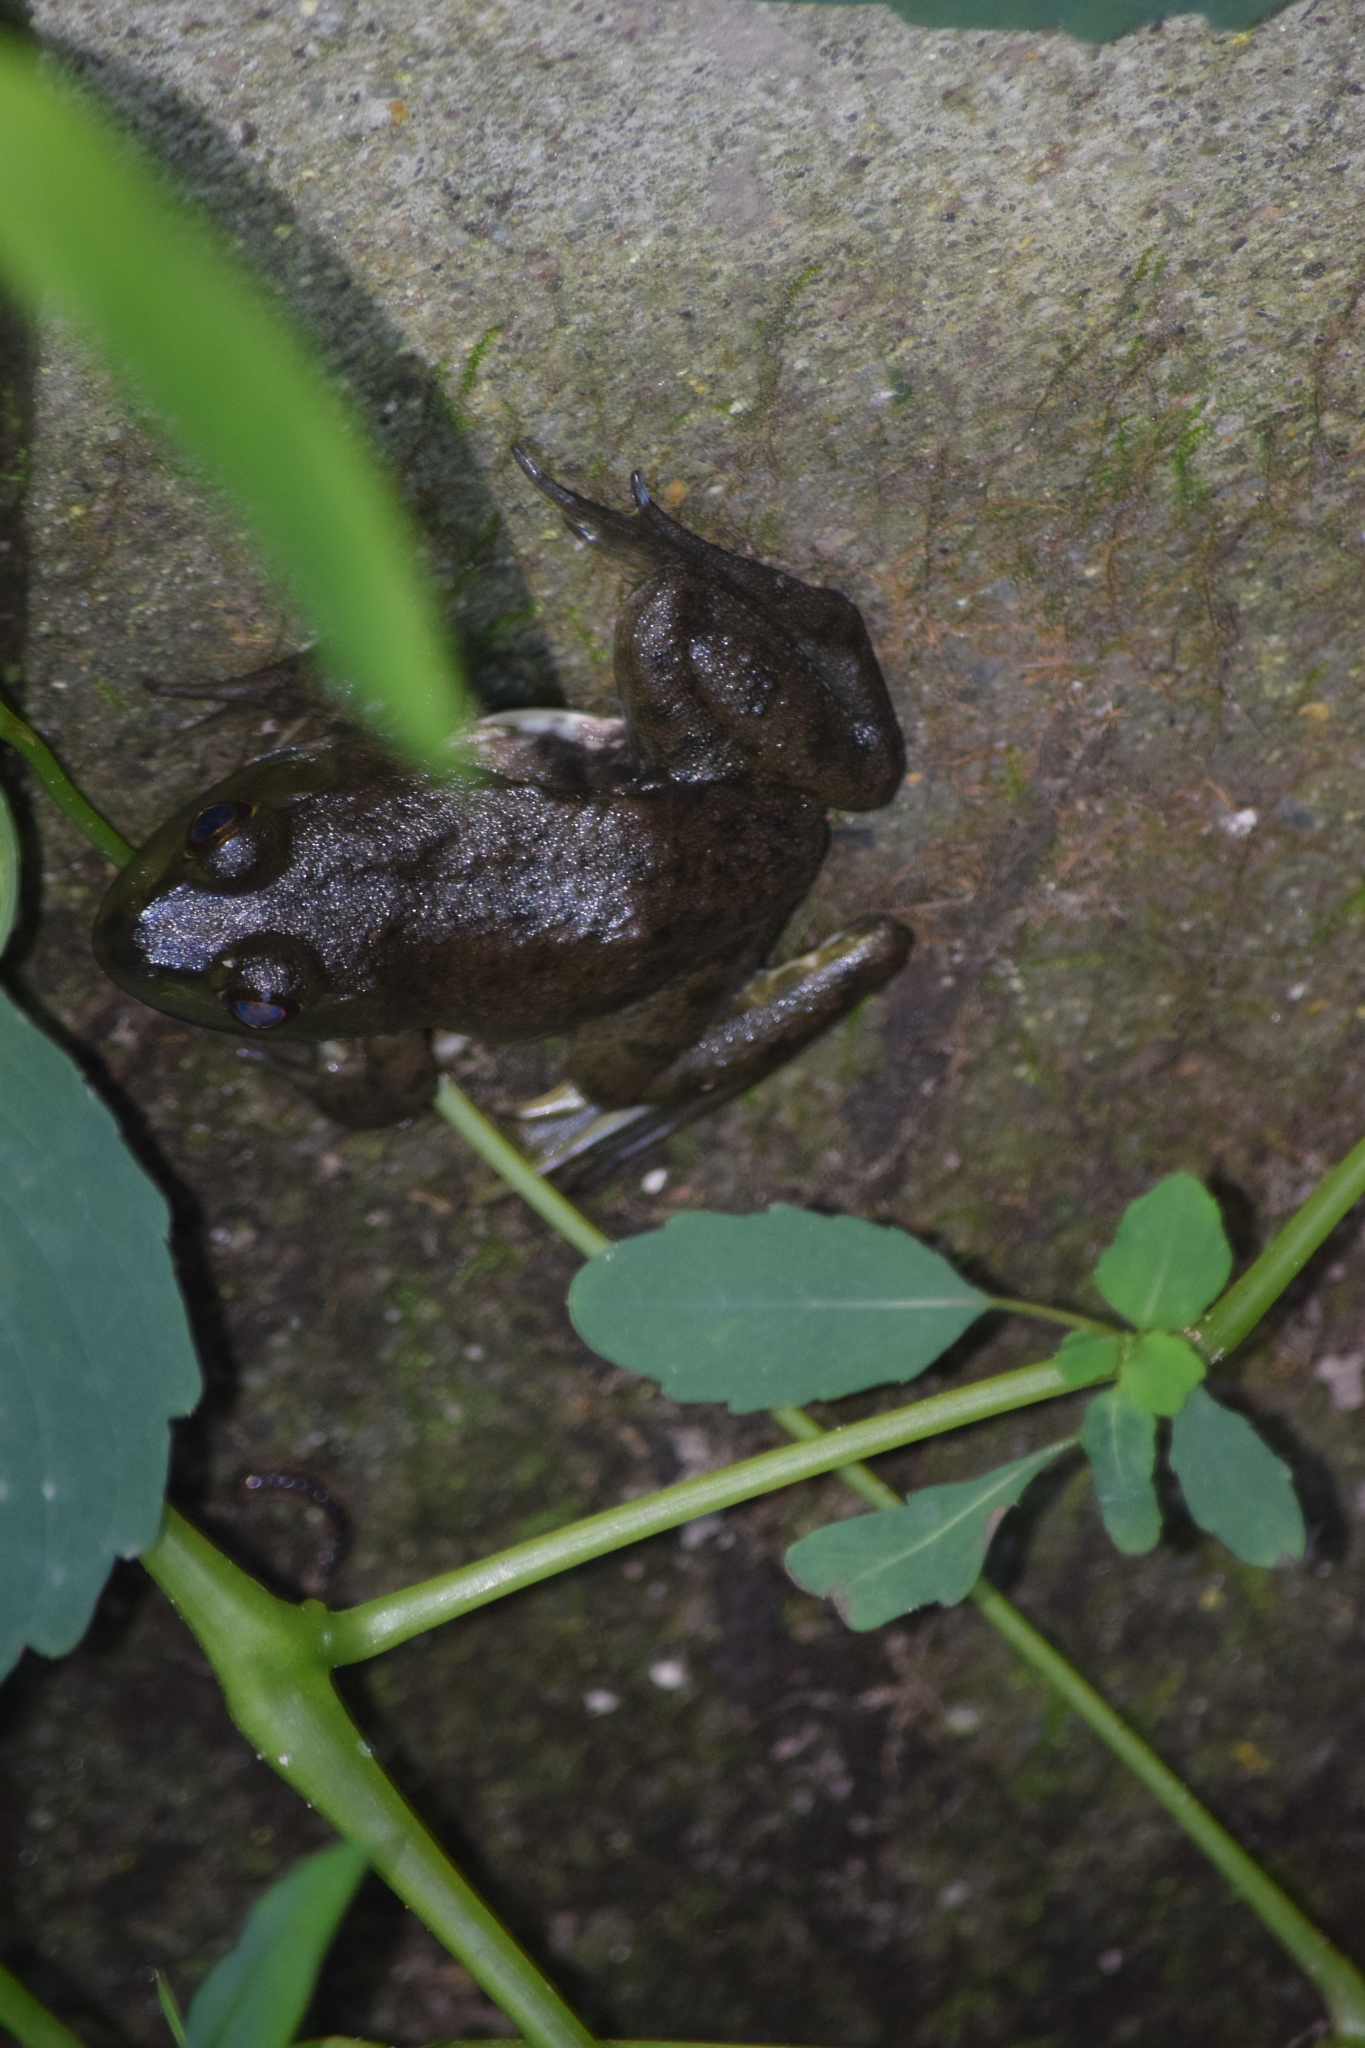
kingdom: Animalia
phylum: Chordata
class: Amphibia
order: Anura
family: Ranidae
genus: Lithobates
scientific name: Lithobates catesbeianus
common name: American bullfrog
